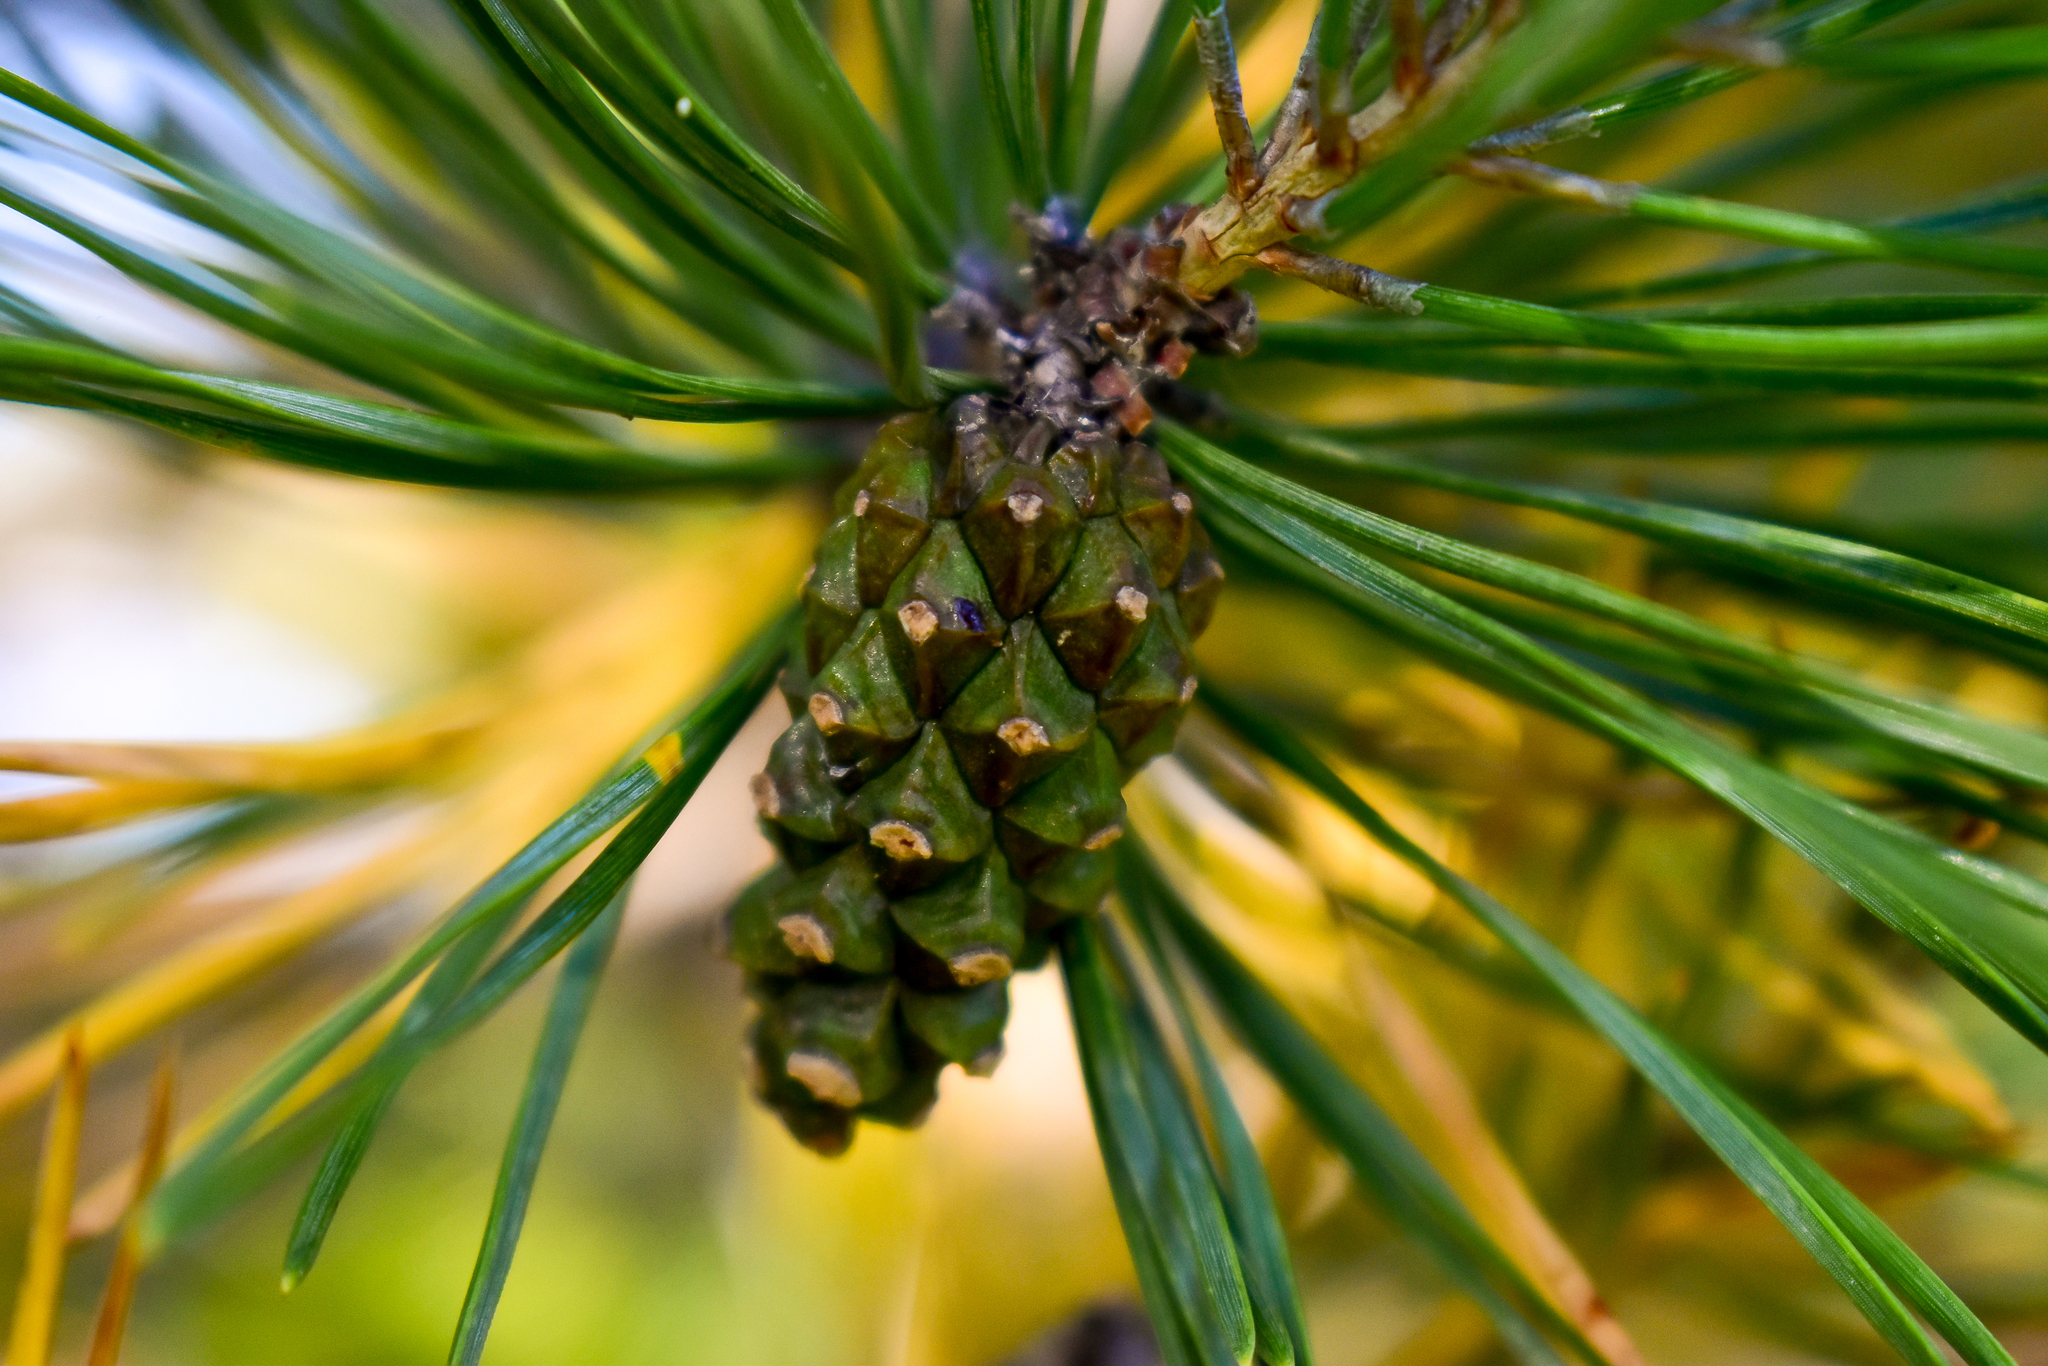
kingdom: Plantae
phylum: Tracheophyta
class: Pinopsida
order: Pinales
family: Pinaceae
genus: Pinus
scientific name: Pinus sylvestris
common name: Scots pine
